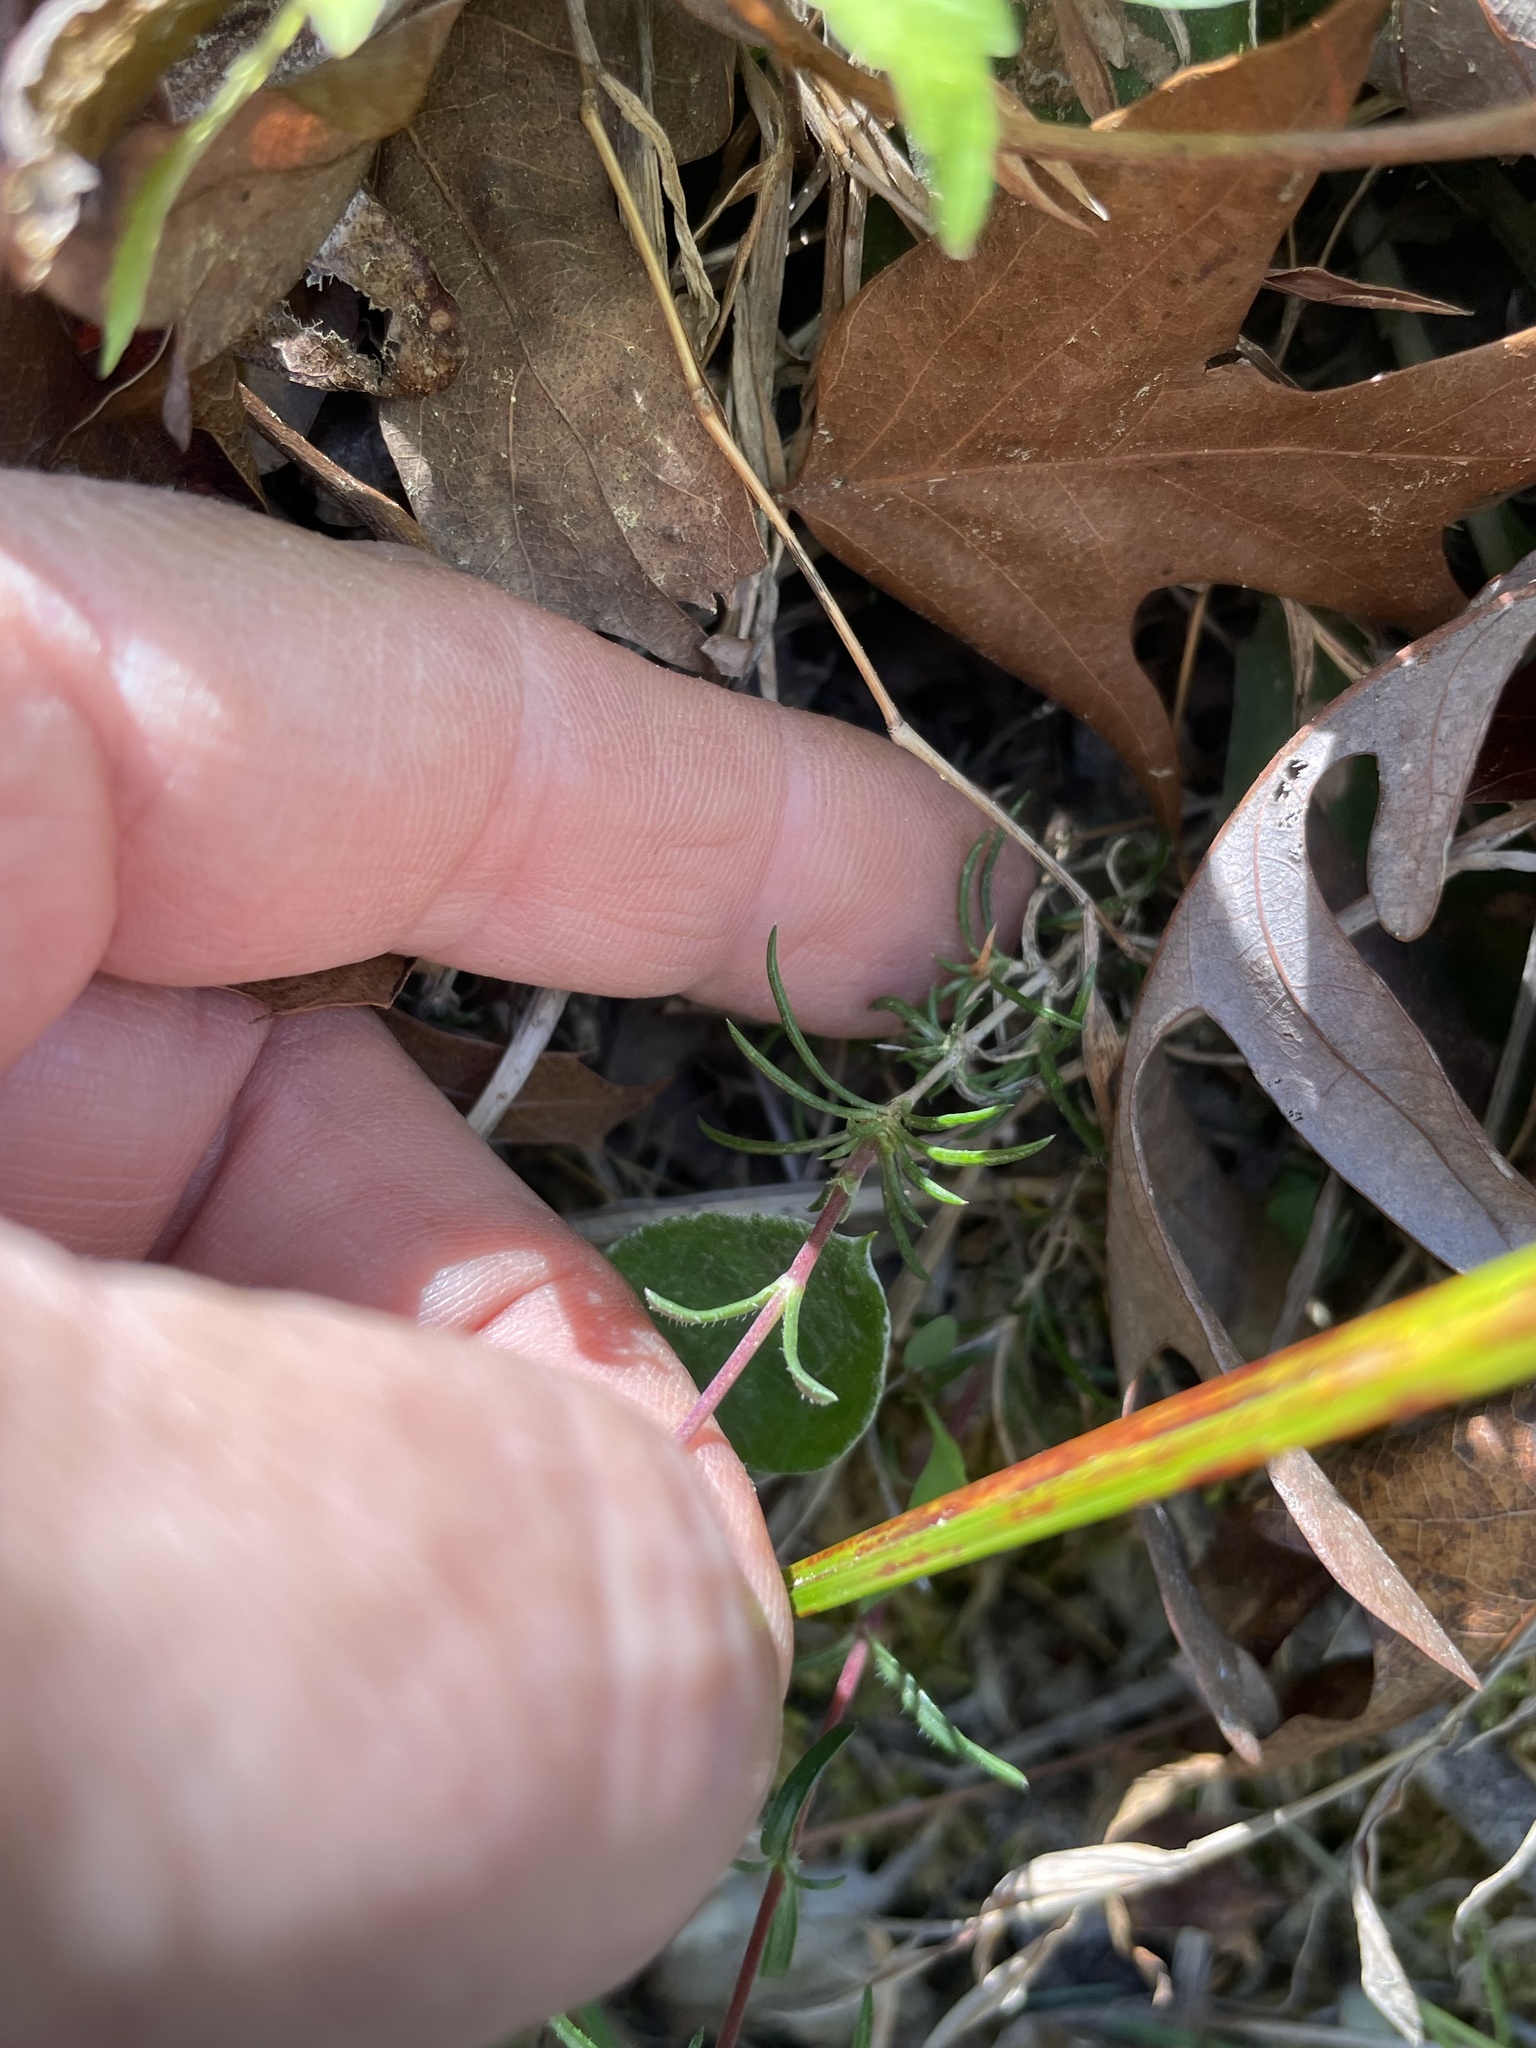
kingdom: Plantae
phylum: Tracheophyta
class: Magnoliopsida
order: Ericales
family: Polemoniaceae
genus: Phlox
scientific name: Phlox nivalis
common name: Trailing phlox
